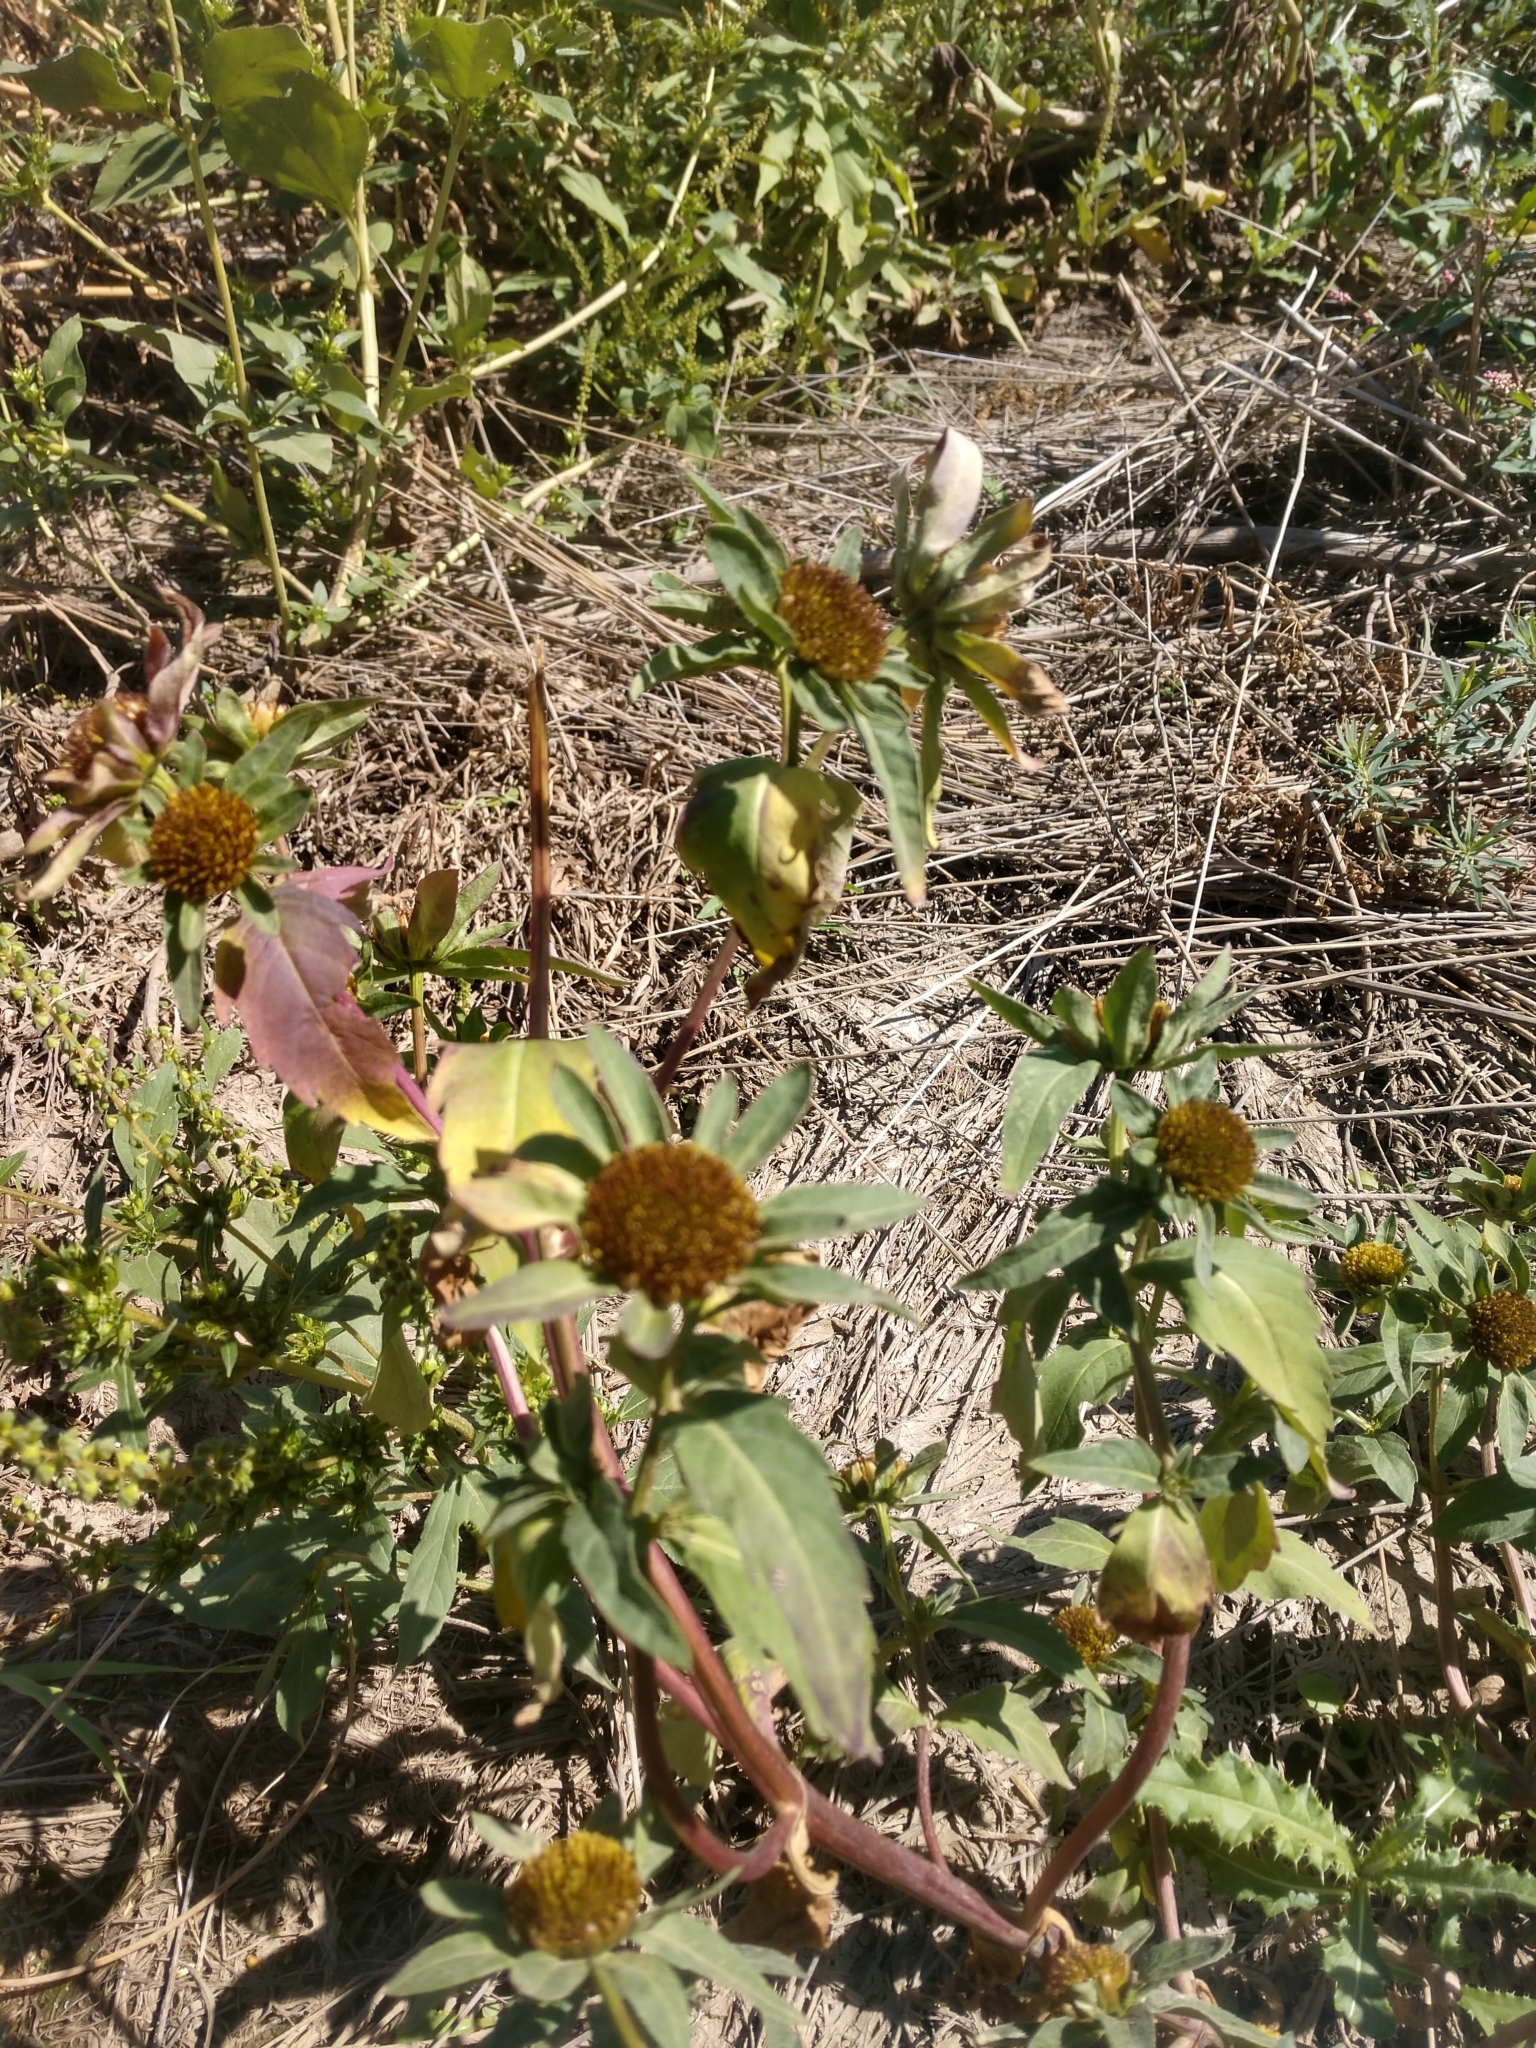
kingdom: Plantae
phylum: Tracheophyta
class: Magnoliopsida
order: Asterales
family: Asteraceae
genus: Bidens
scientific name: Bidens tripartita
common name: Trifid bur-marigold
